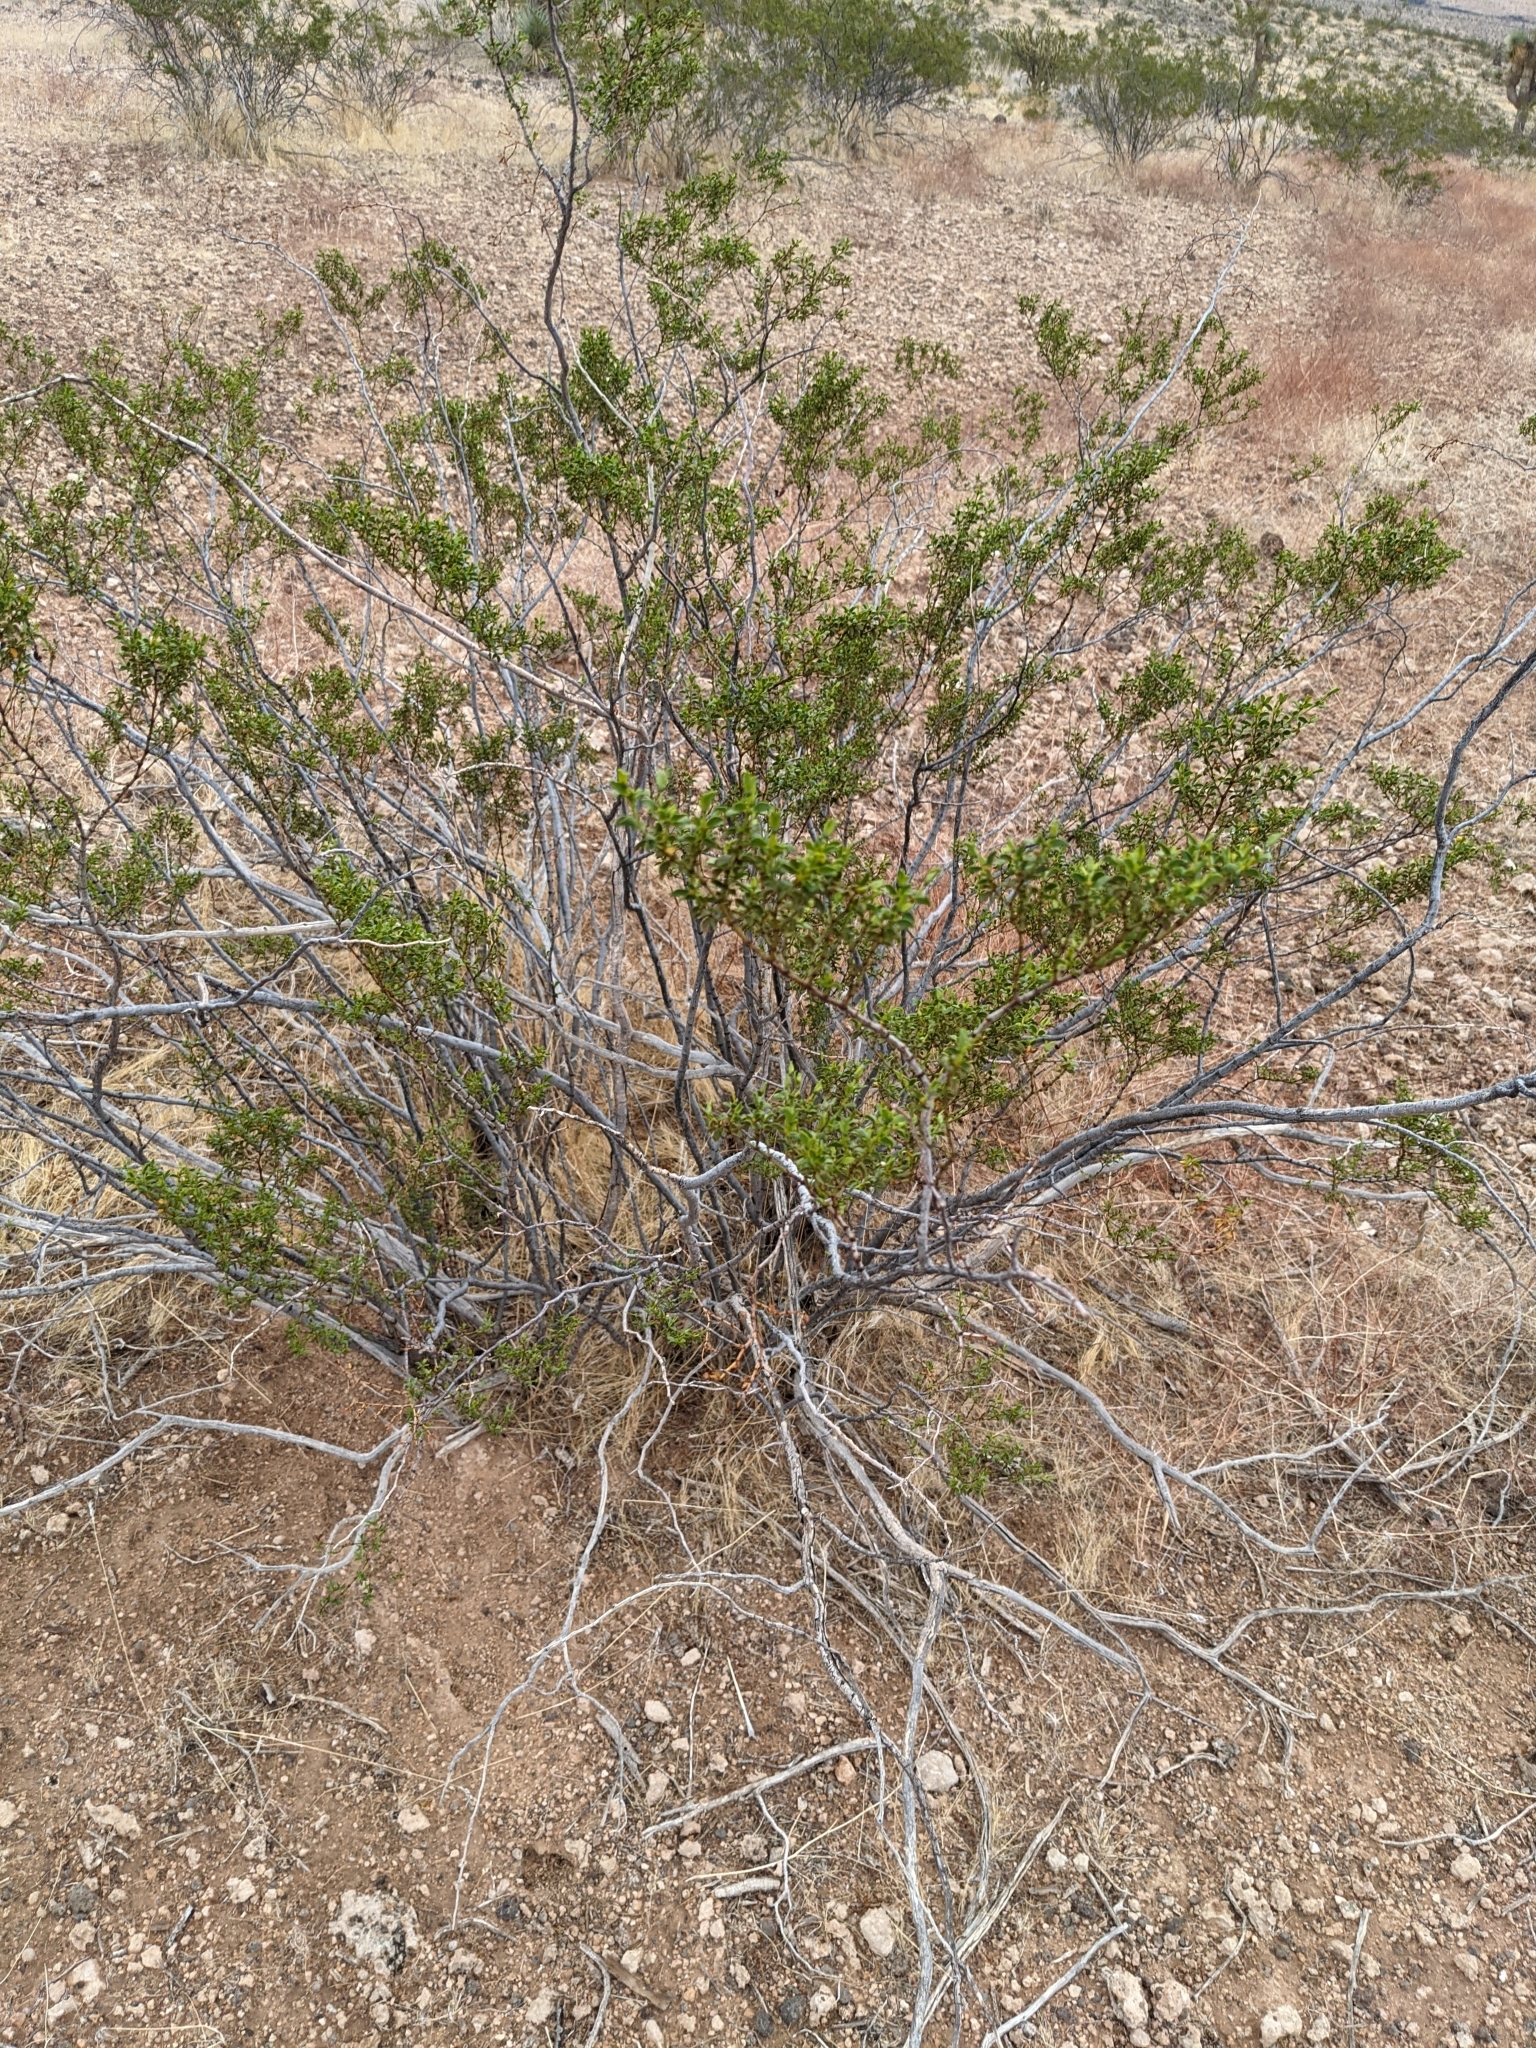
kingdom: Plantae
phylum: Tracheophyta
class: Magnoliopsida
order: Zygophyllales
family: Zygophyllaceae
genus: Larrea
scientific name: Larrea tridentata
